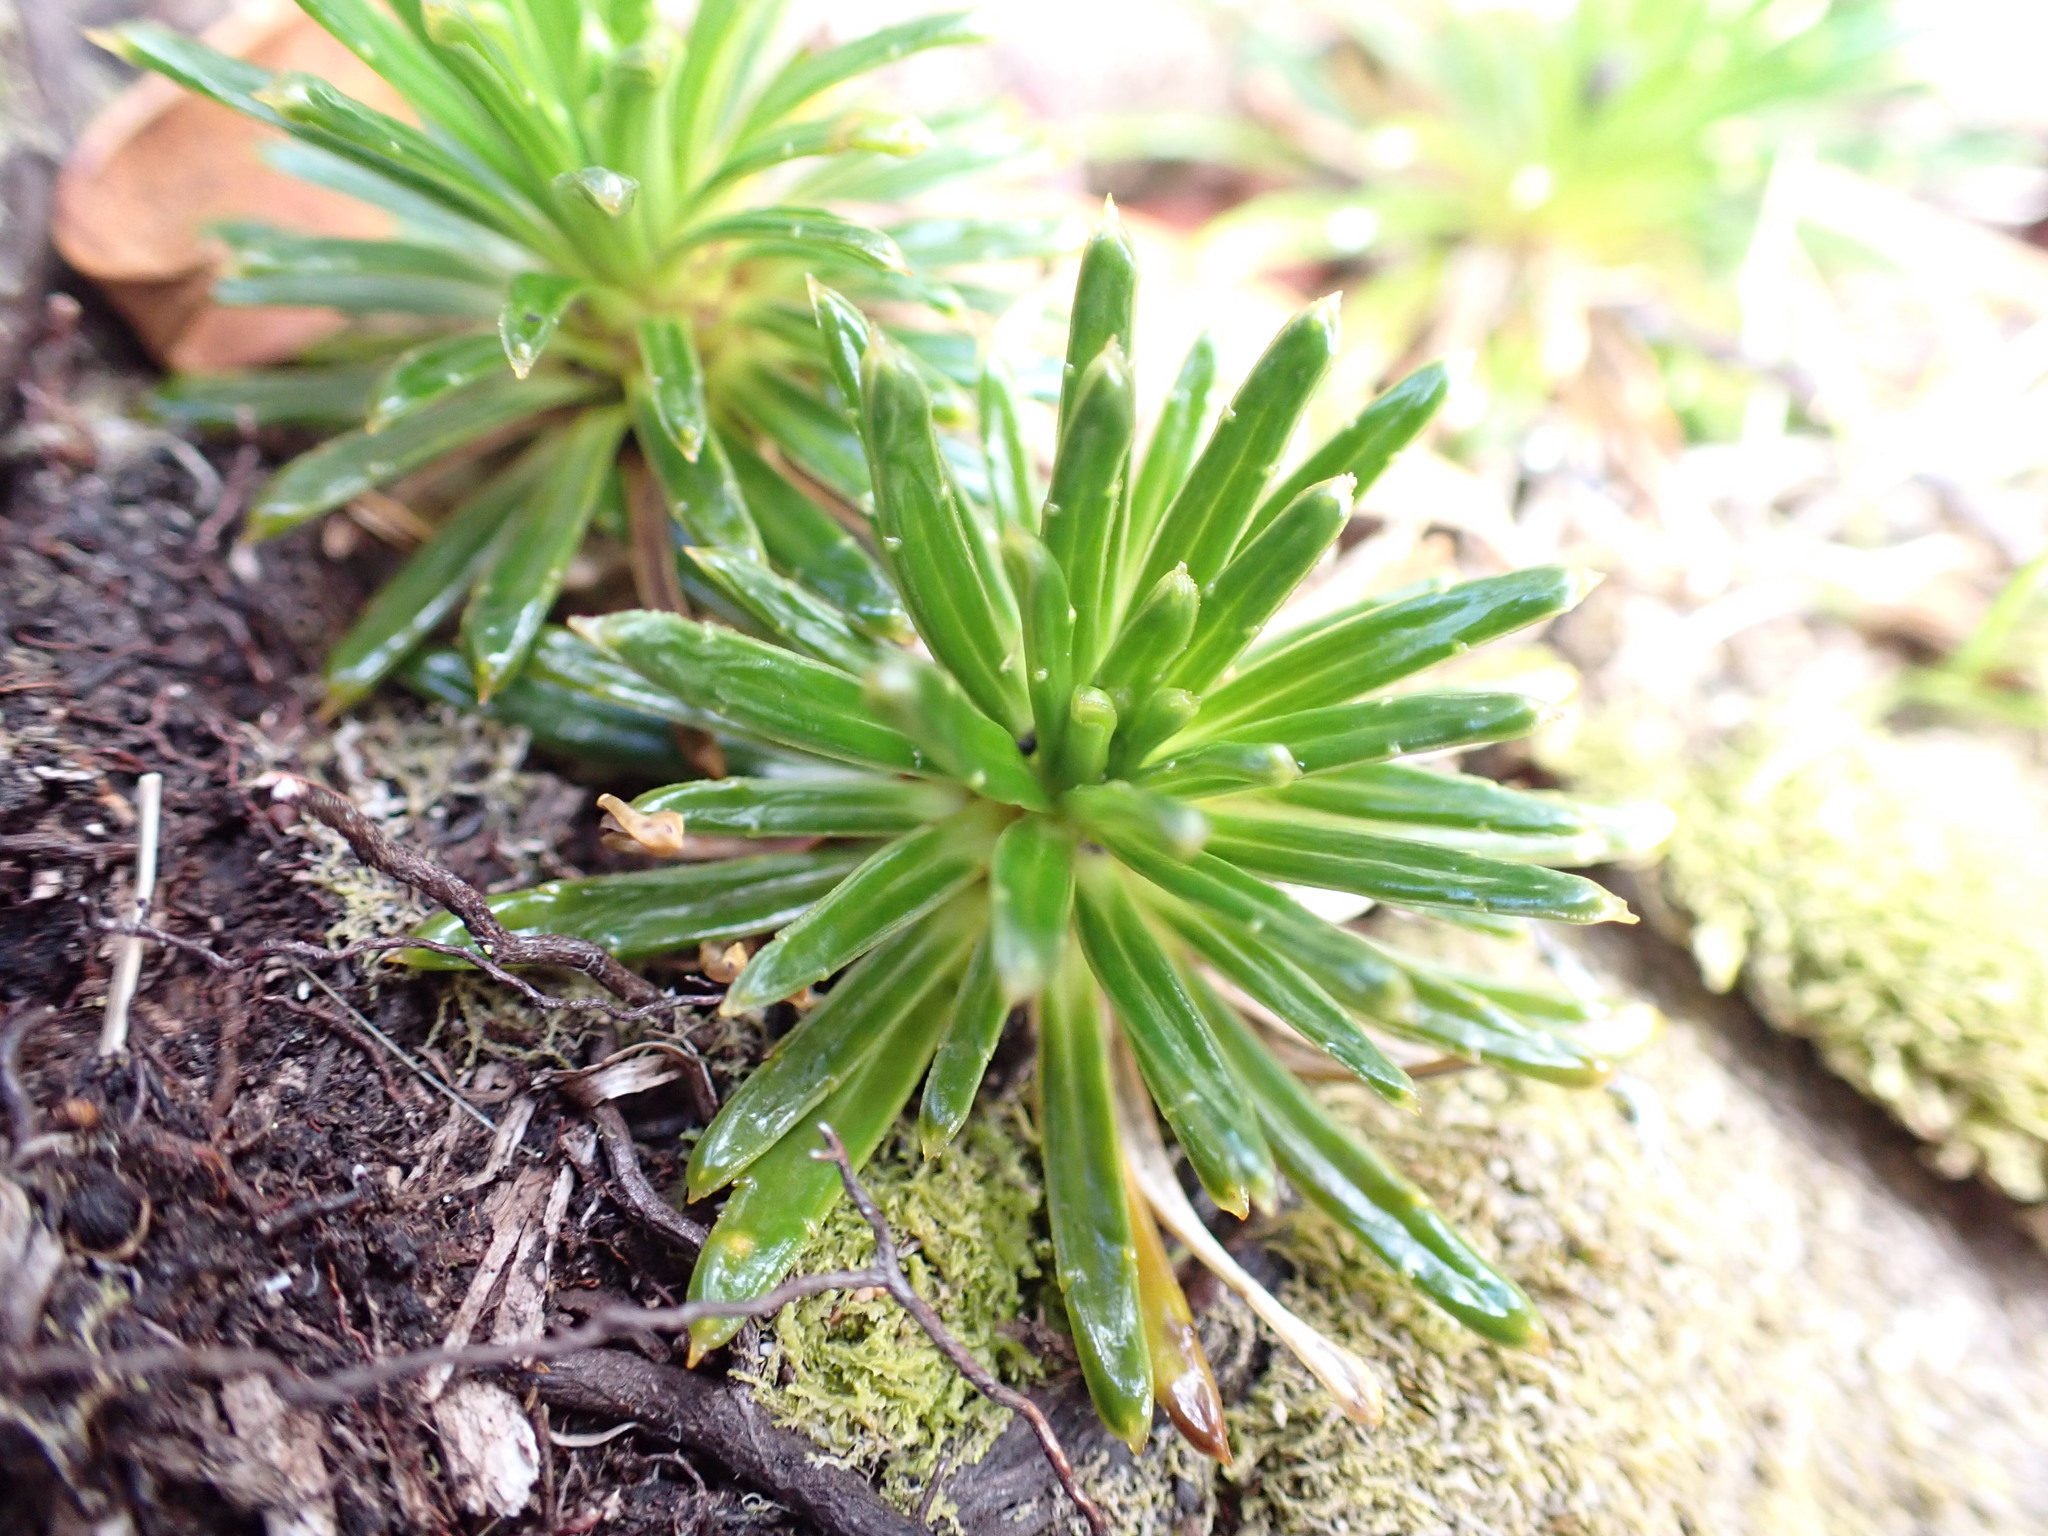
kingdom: Plantae
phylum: Tracheophyta
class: Magnoliopsida
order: Asterales
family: Asteraceae
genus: Damnamenia
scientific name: Damnamenia vernicosa
